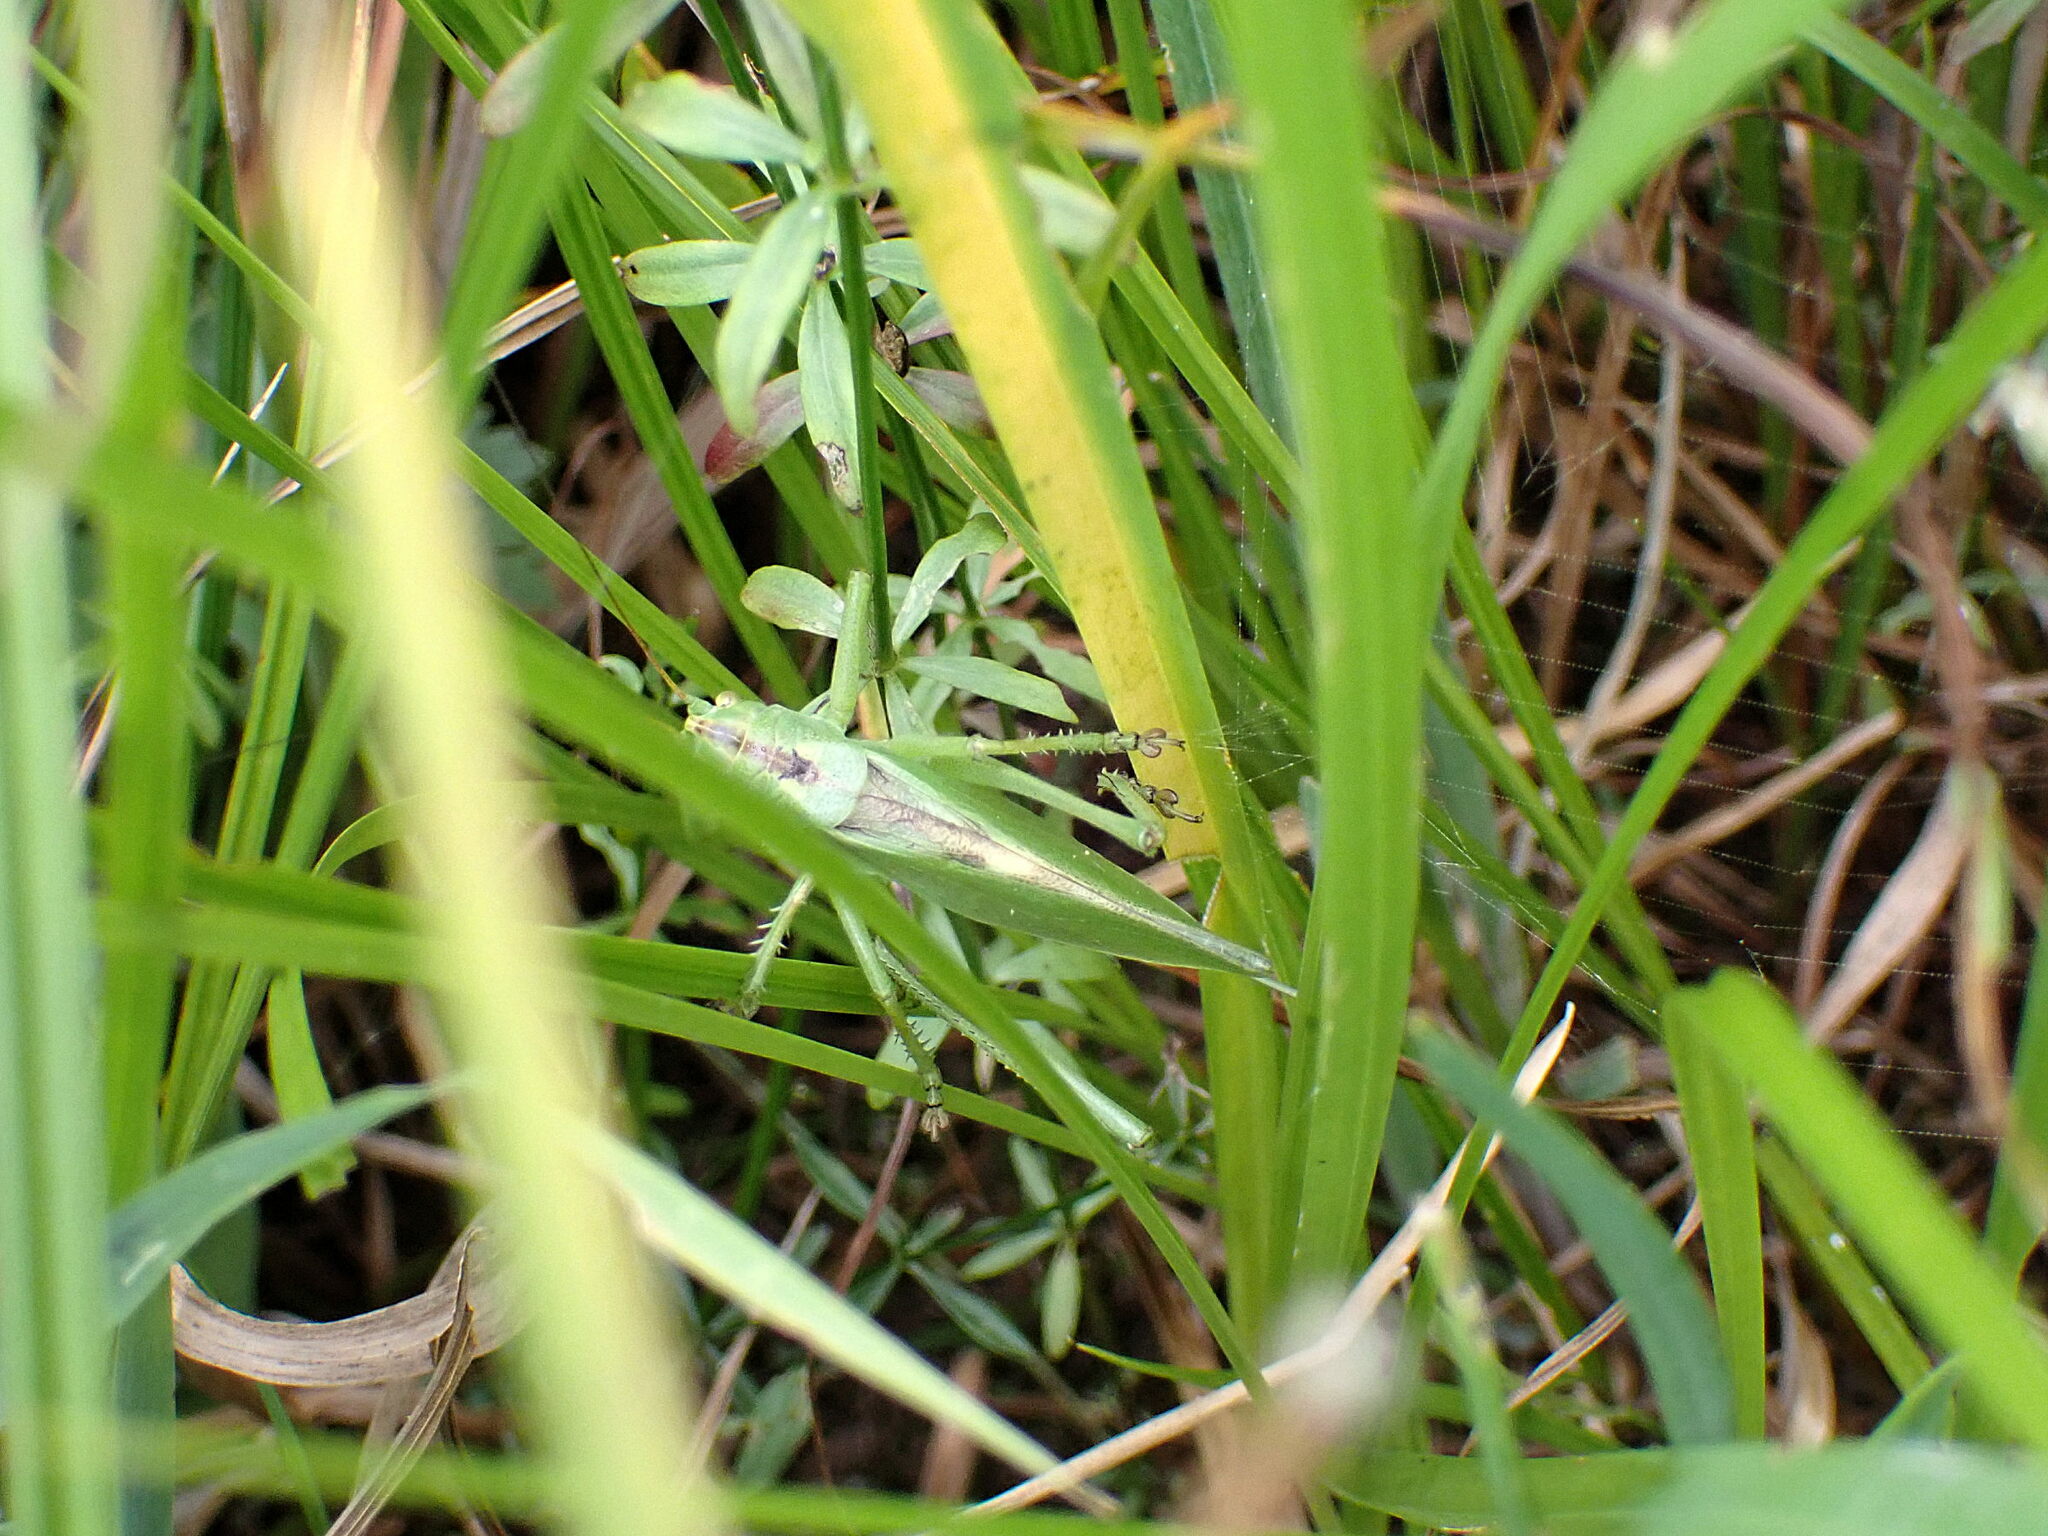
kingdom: Animalia
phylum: Arthropoda
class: Insecta
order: Orthoptera
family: Tettigoniidae
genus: Tettigonia
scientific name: Tettigonia cantans
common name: Upland green bush-cricket
